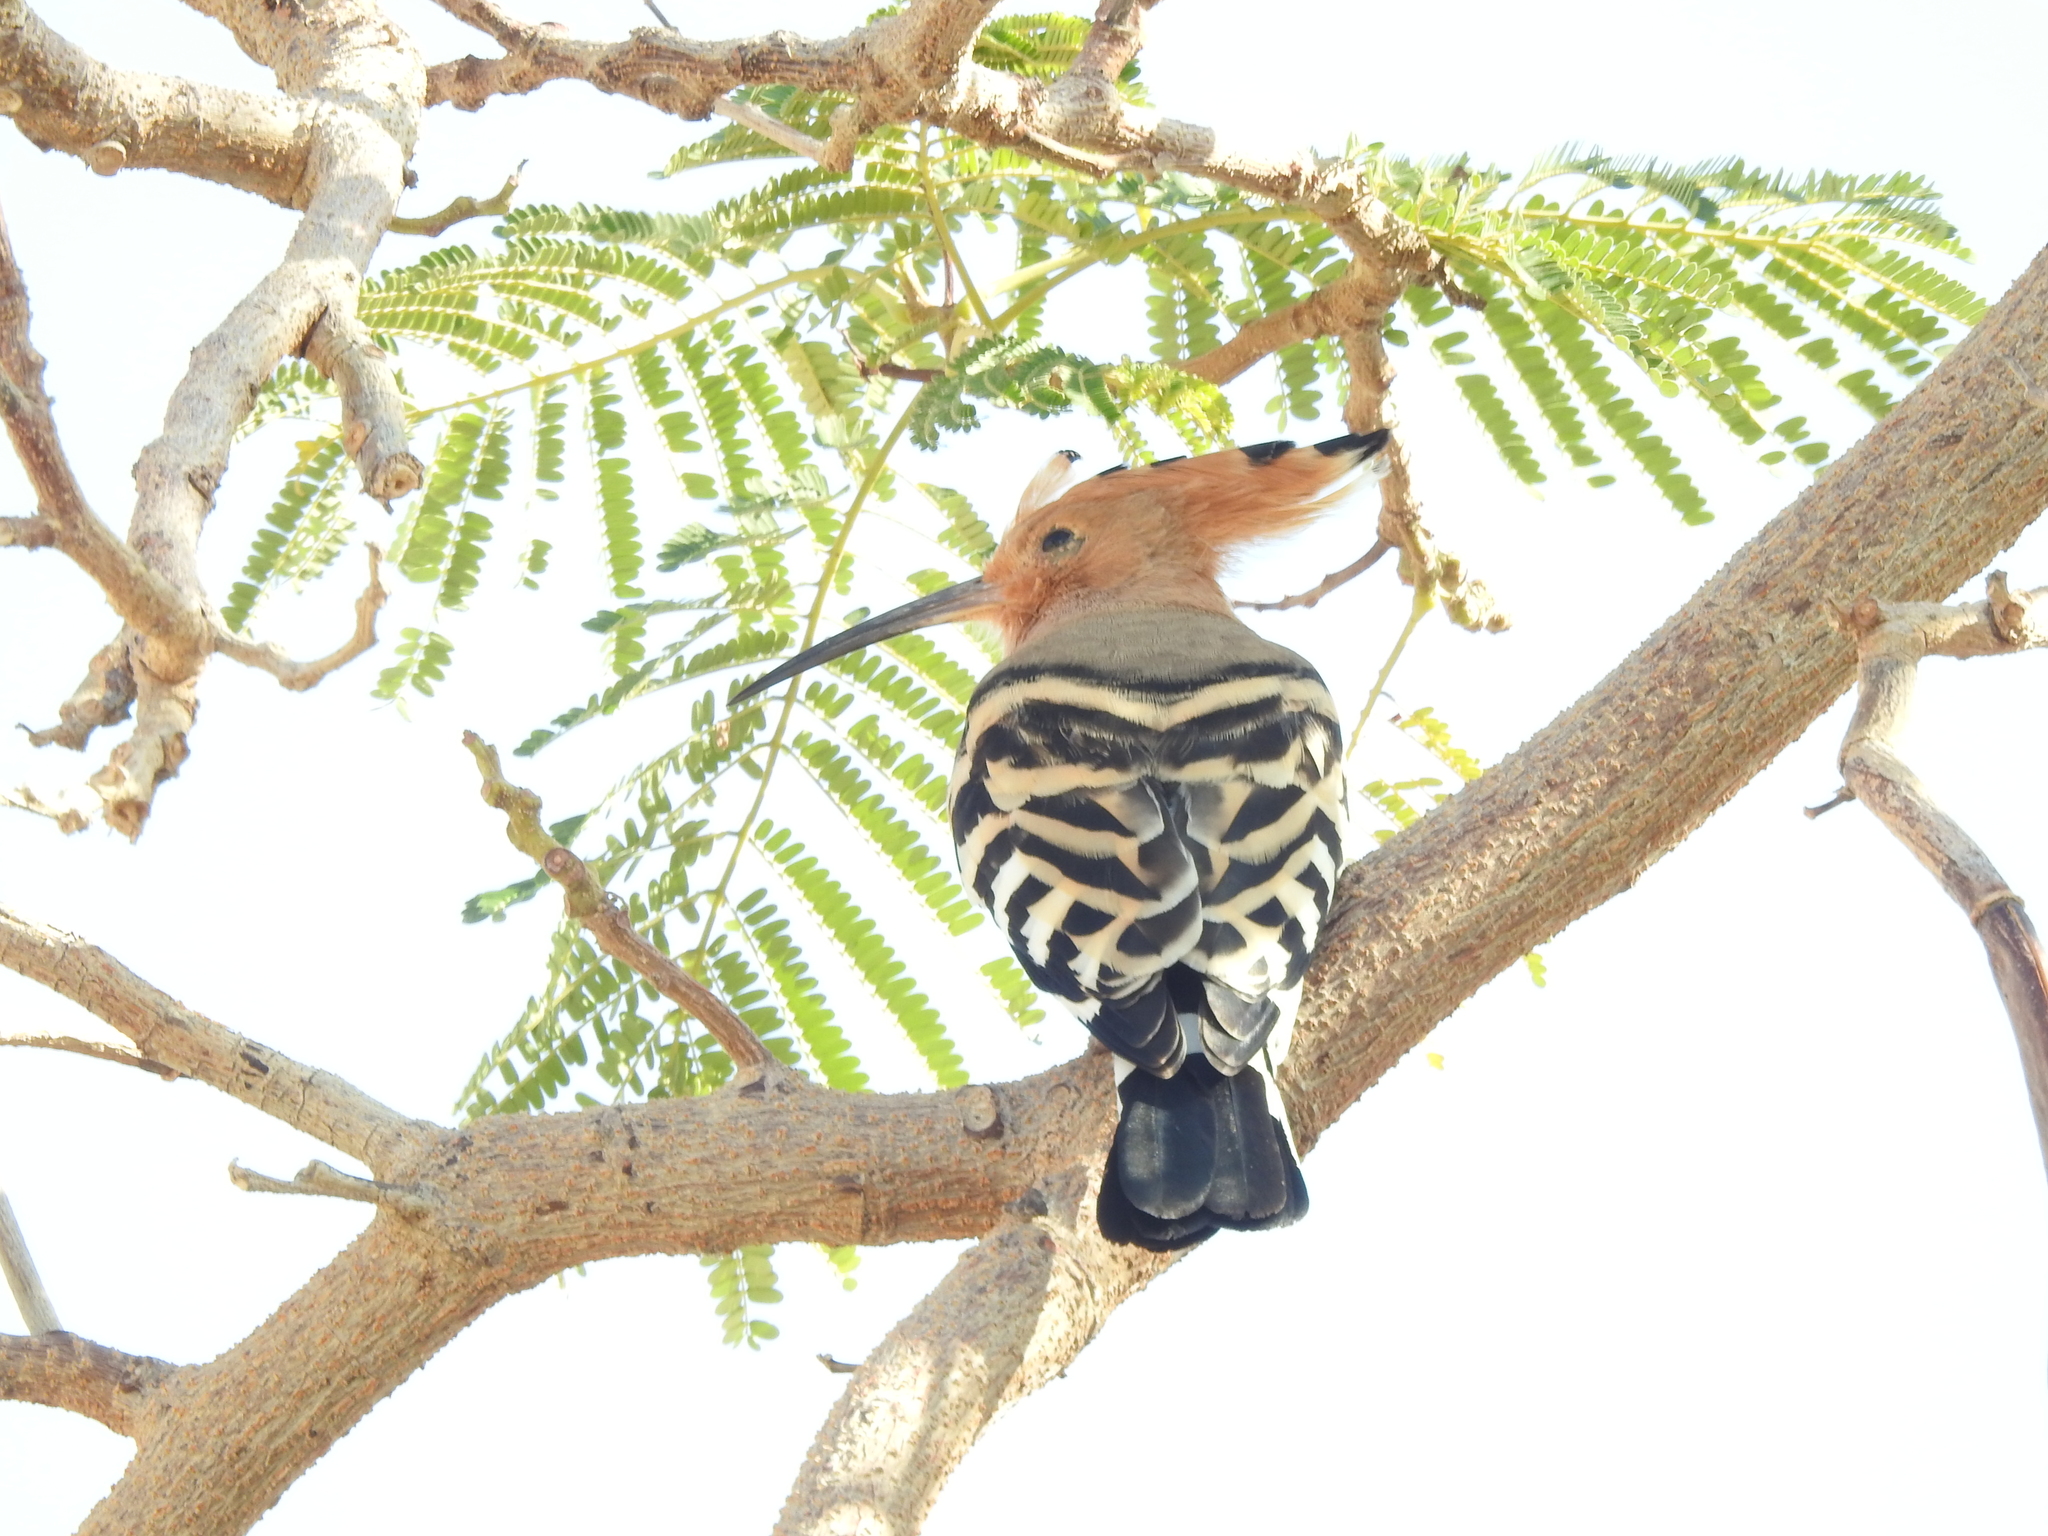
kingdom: Animalia
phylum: Chordata
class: Aves
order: Bucerotiformes
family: Upupidae
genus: Upupa
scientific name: Upupa epops
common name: Eurasian hoopoe
